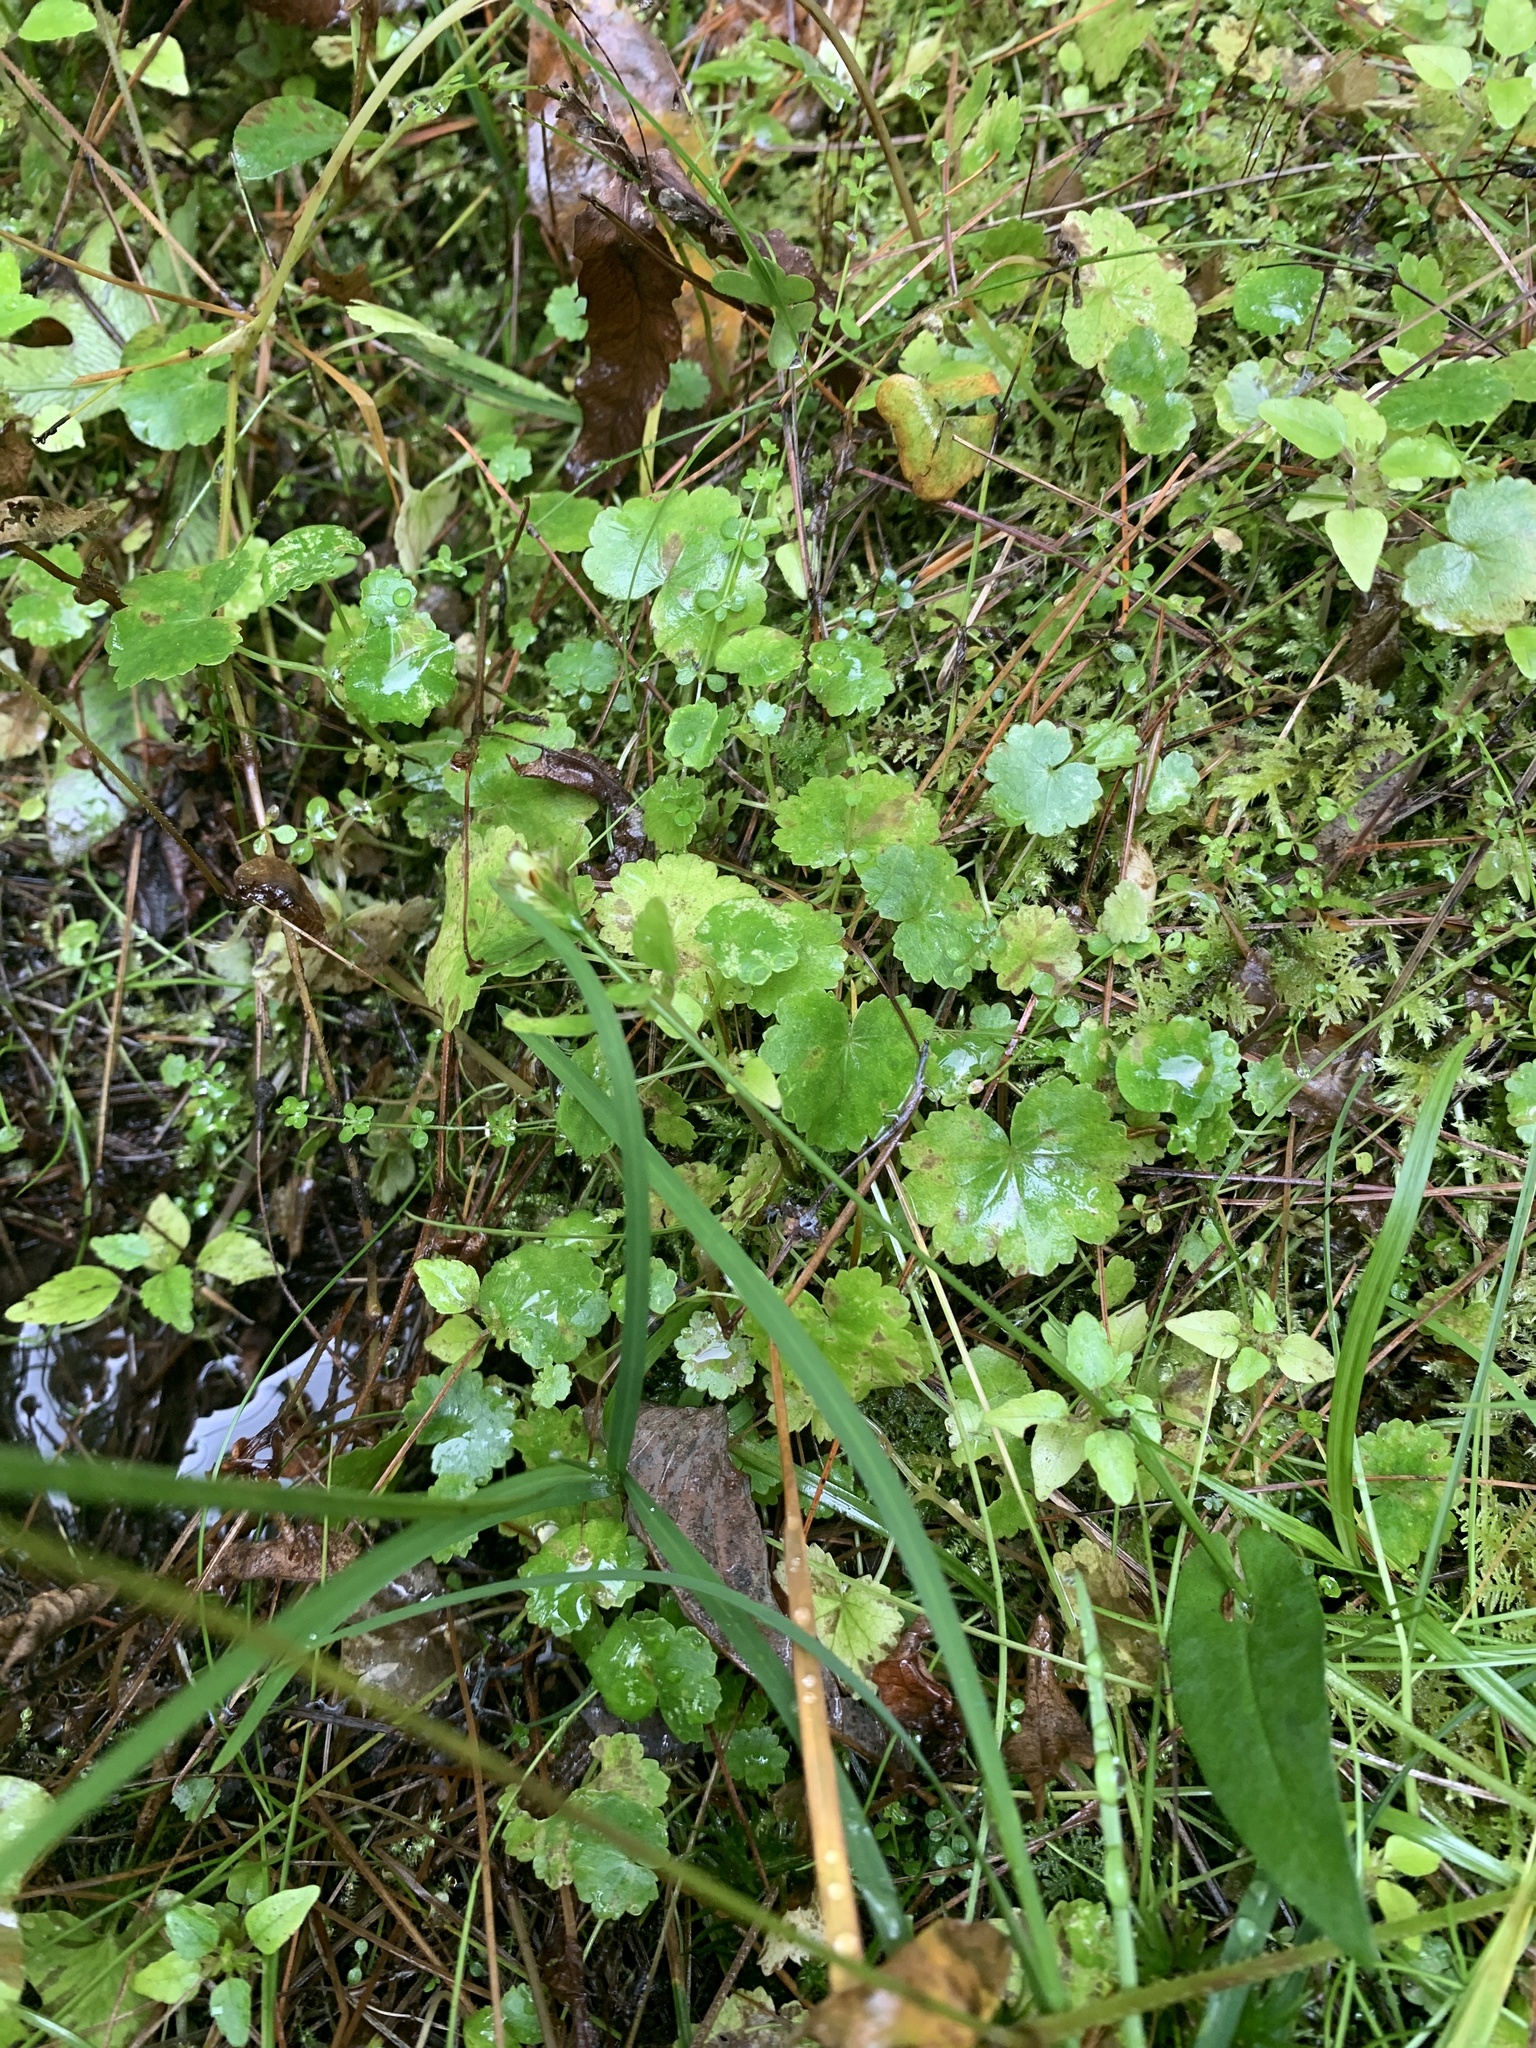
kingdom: Plantae
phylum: Tracheophyta
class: Magnoliopsida
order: Apiales
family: Araliaceae
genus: Hydrocotyle
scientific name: Hydrocotyle americana
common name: American water-pennywort
